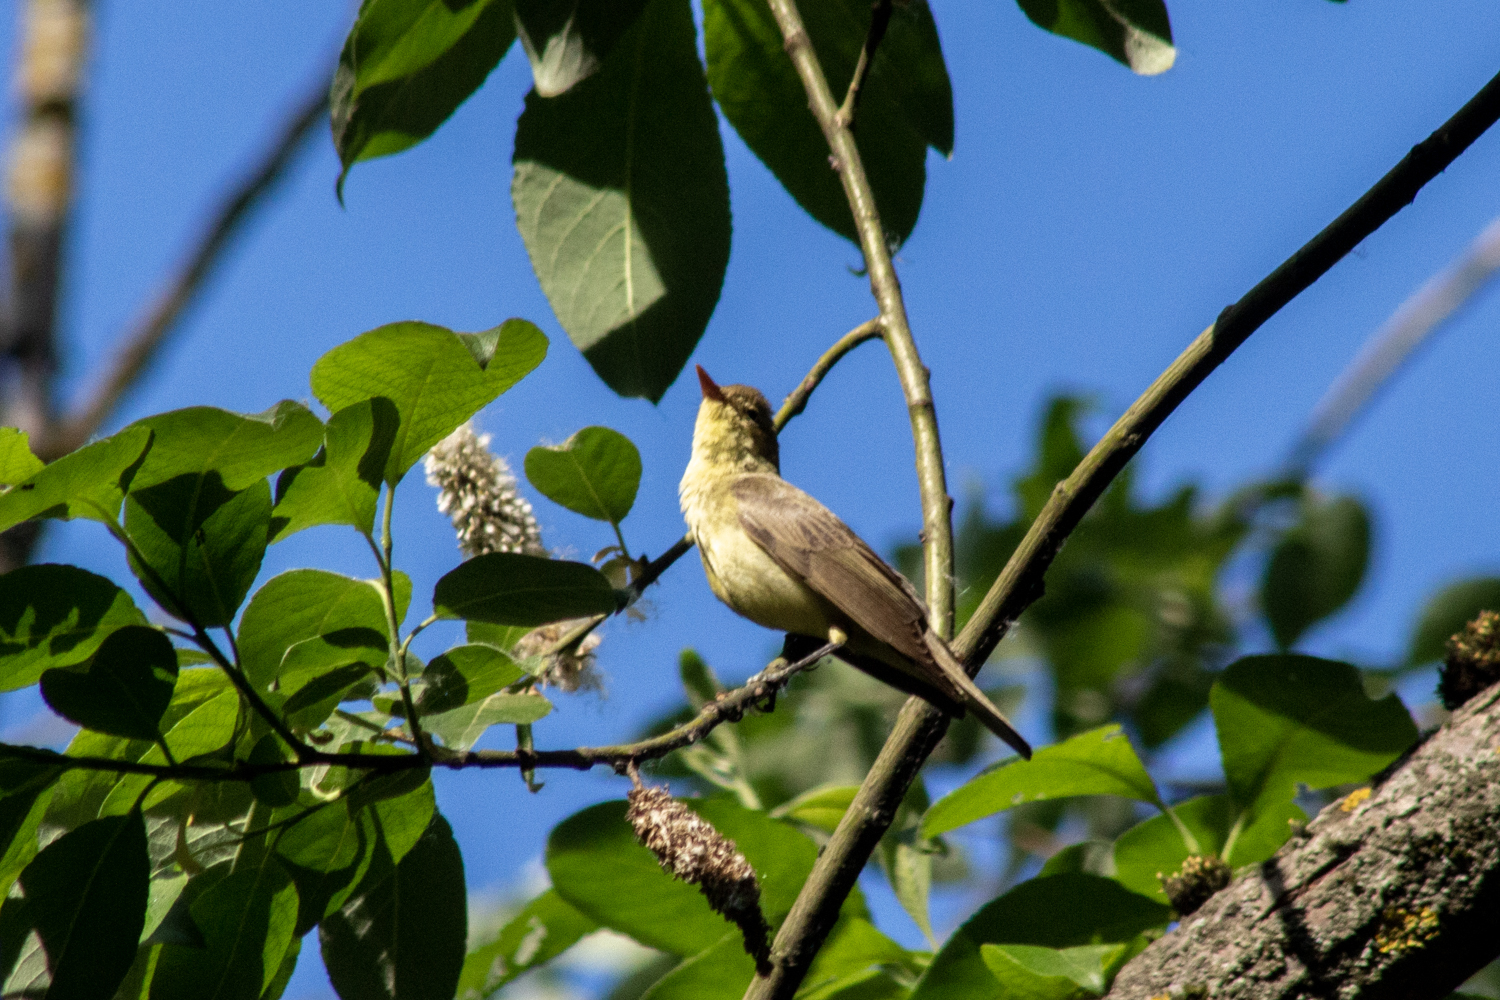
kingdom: Animalia
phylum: Chordata
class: Aves
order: Passeriformes
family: Acrocephalidae
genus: Hippolais
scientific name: Hippolais icterina
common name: Icterine warbler
